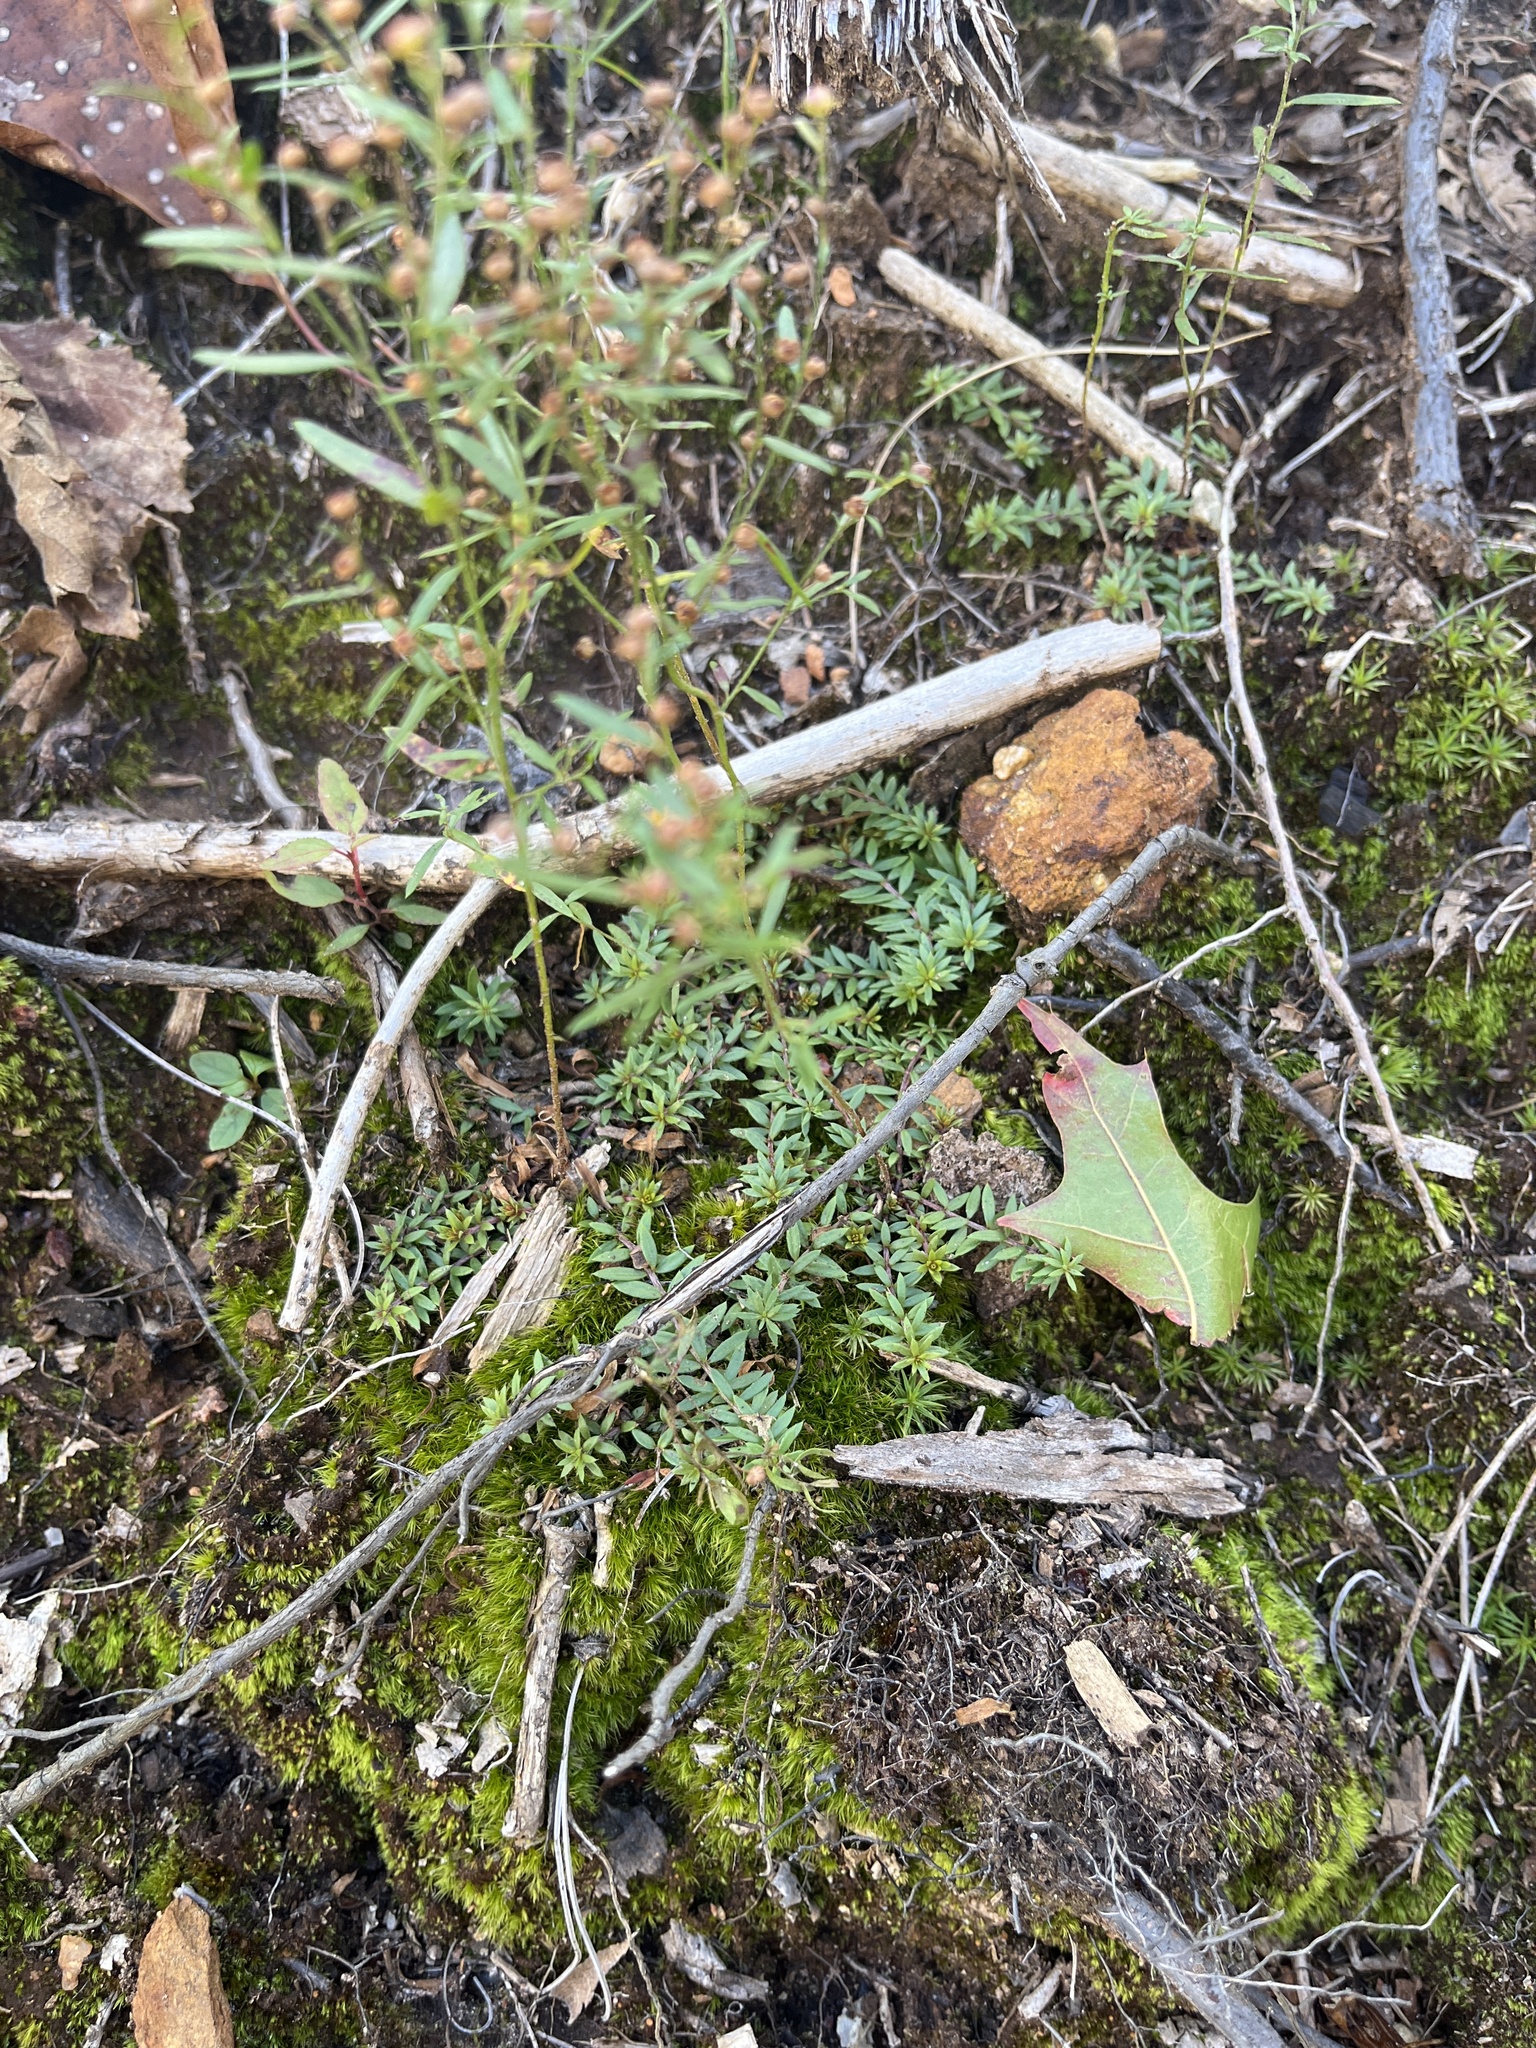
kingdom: Plantae
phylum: Tracheophyta
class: Magnoliopsida
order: Malvales
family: Cistaceae
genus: Lechea
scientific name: Lechea intermedia
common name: Intermediate pinweed
